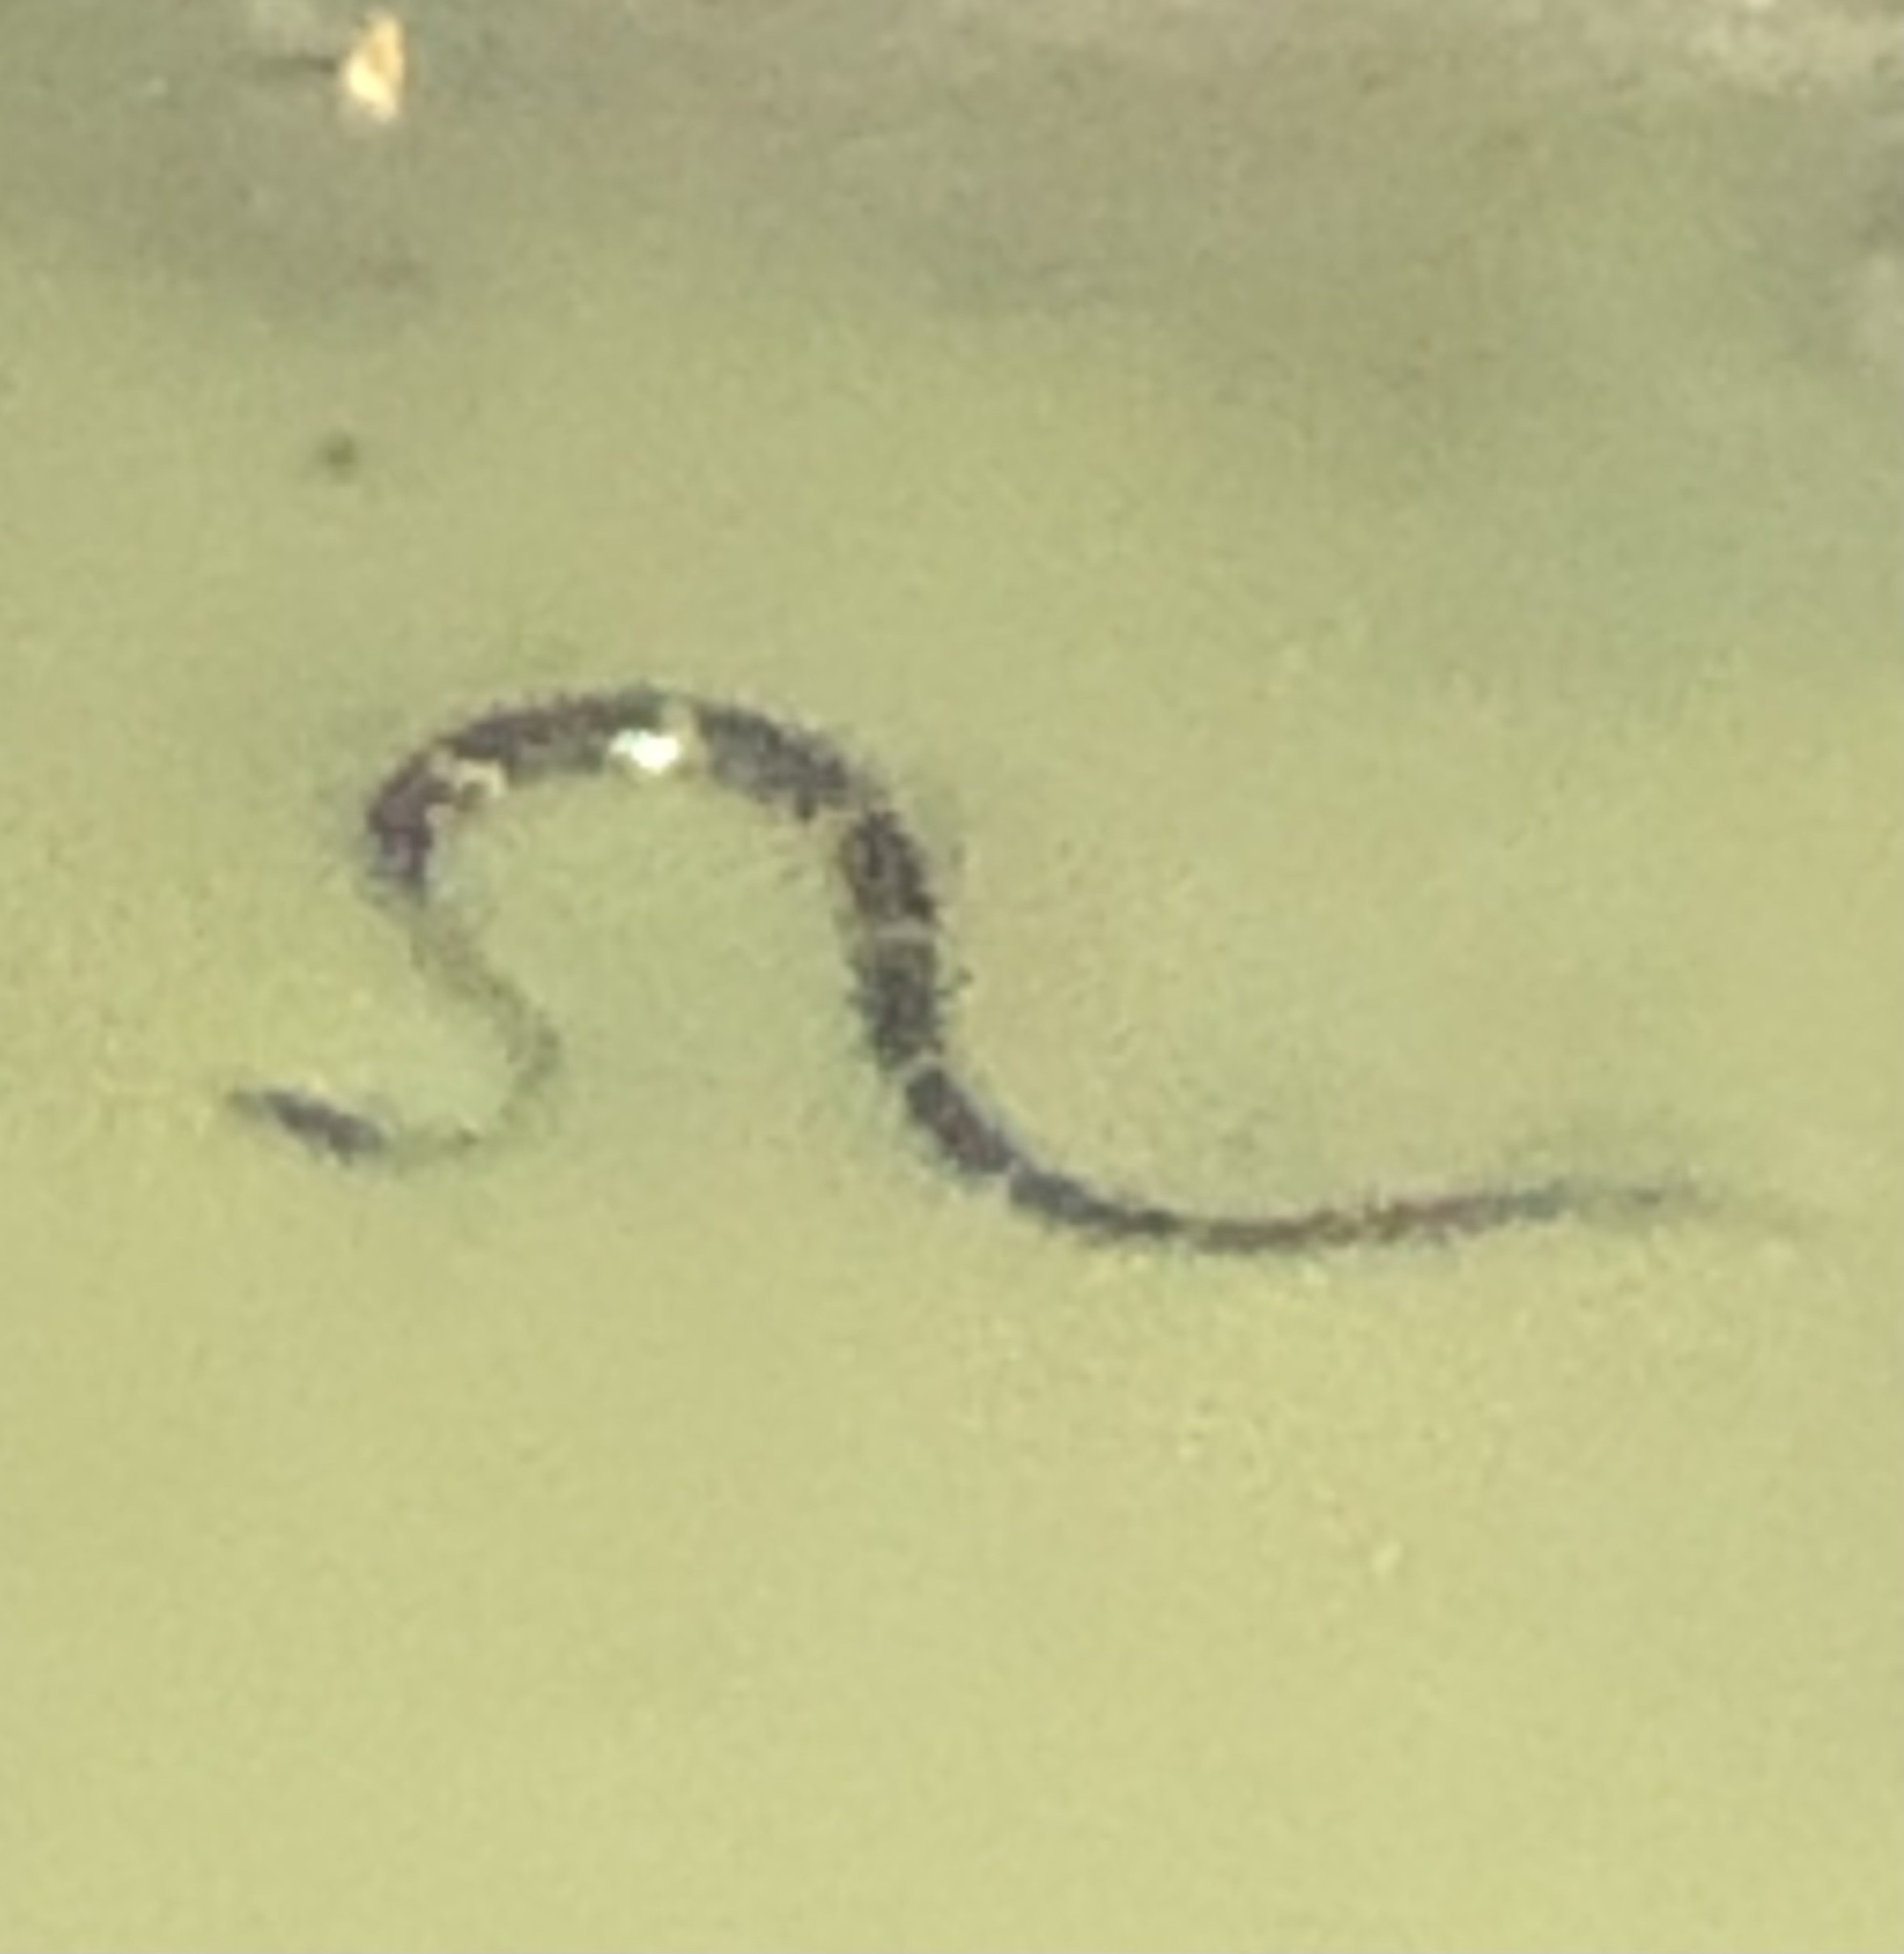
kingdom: Animalia
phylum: Chordata
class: Squamata
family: Colubridae
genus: Nerodia
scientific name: Nerodia fasciata
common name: Southern water snake
